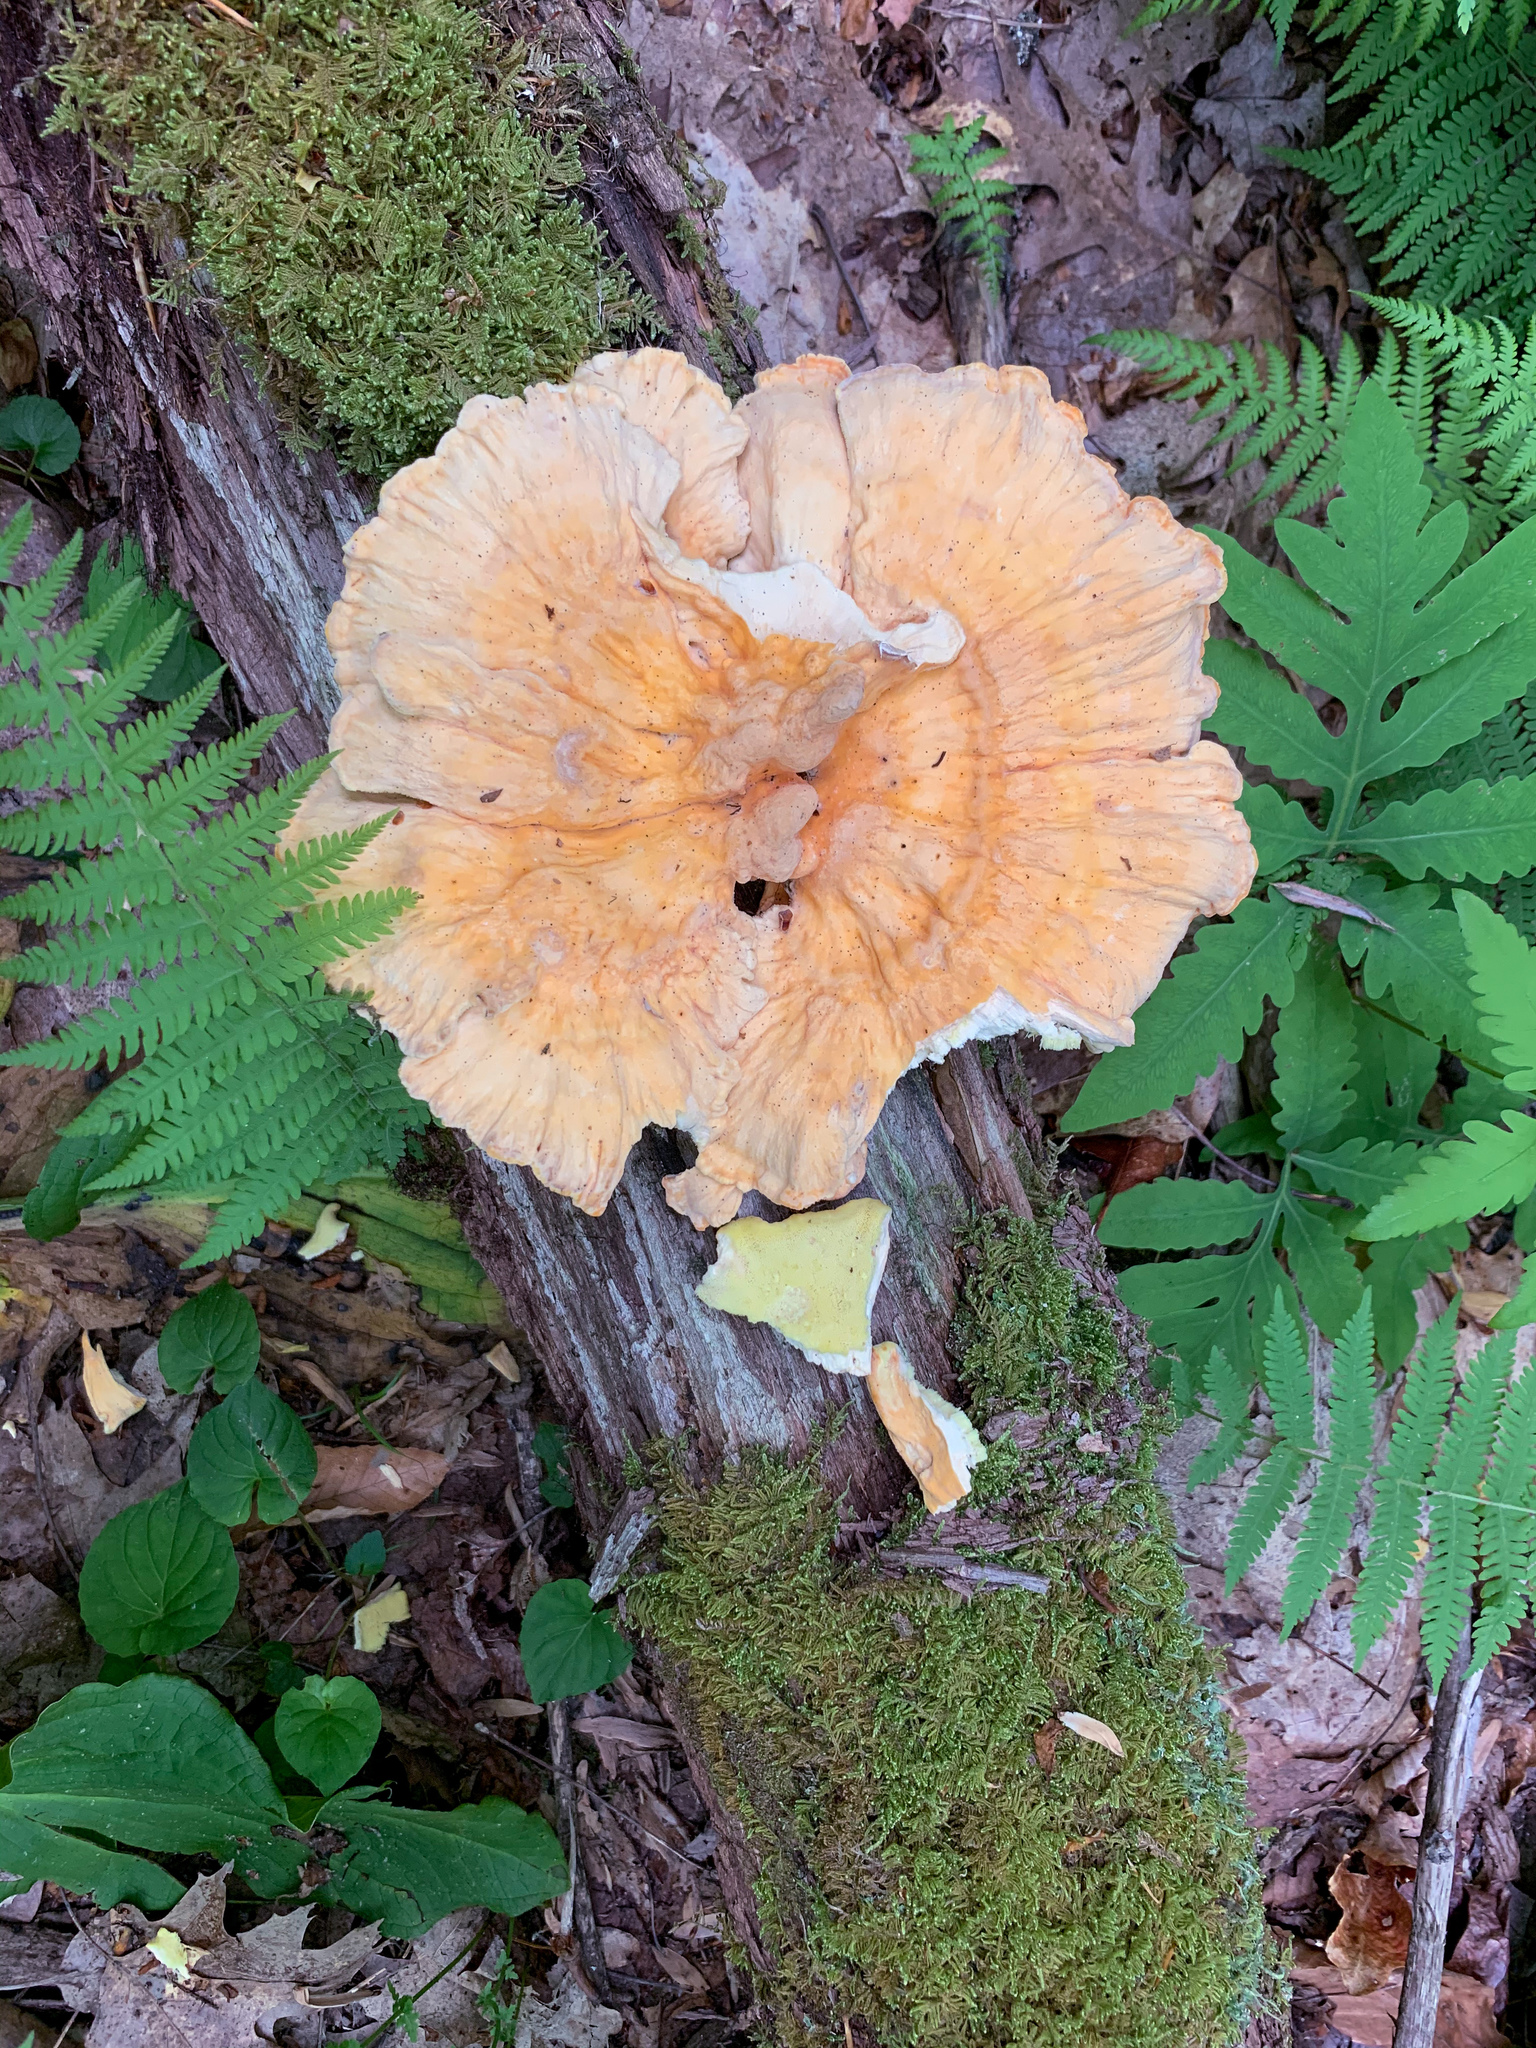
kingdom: Fungi
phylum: Basidiomycota
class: Agaricomycetes
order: Polyporales
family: Laetiporaceae
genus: Laetiporus
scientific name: Laetiporus sulphureus
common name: Chicken of the woods
